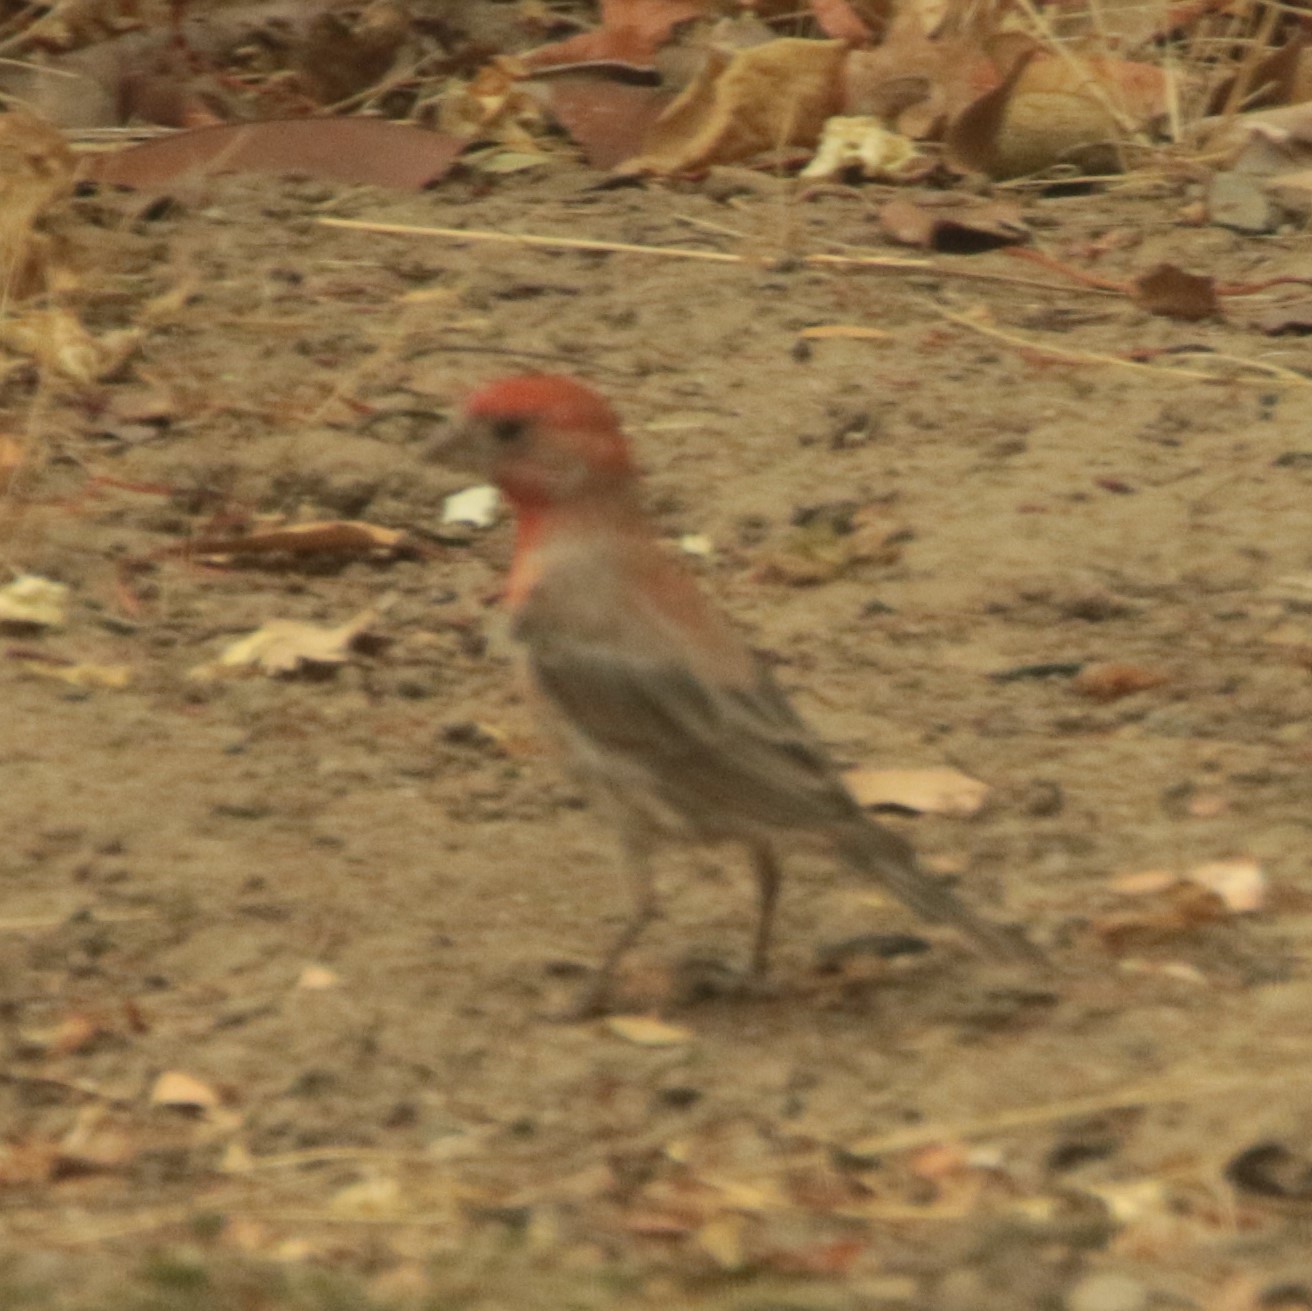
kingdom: Animalia
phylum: Chordata
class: Aves
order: Passeriformes
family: Fringillidae
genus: Haemorhous
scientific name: Haemorhous mexicanus
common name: House finch
